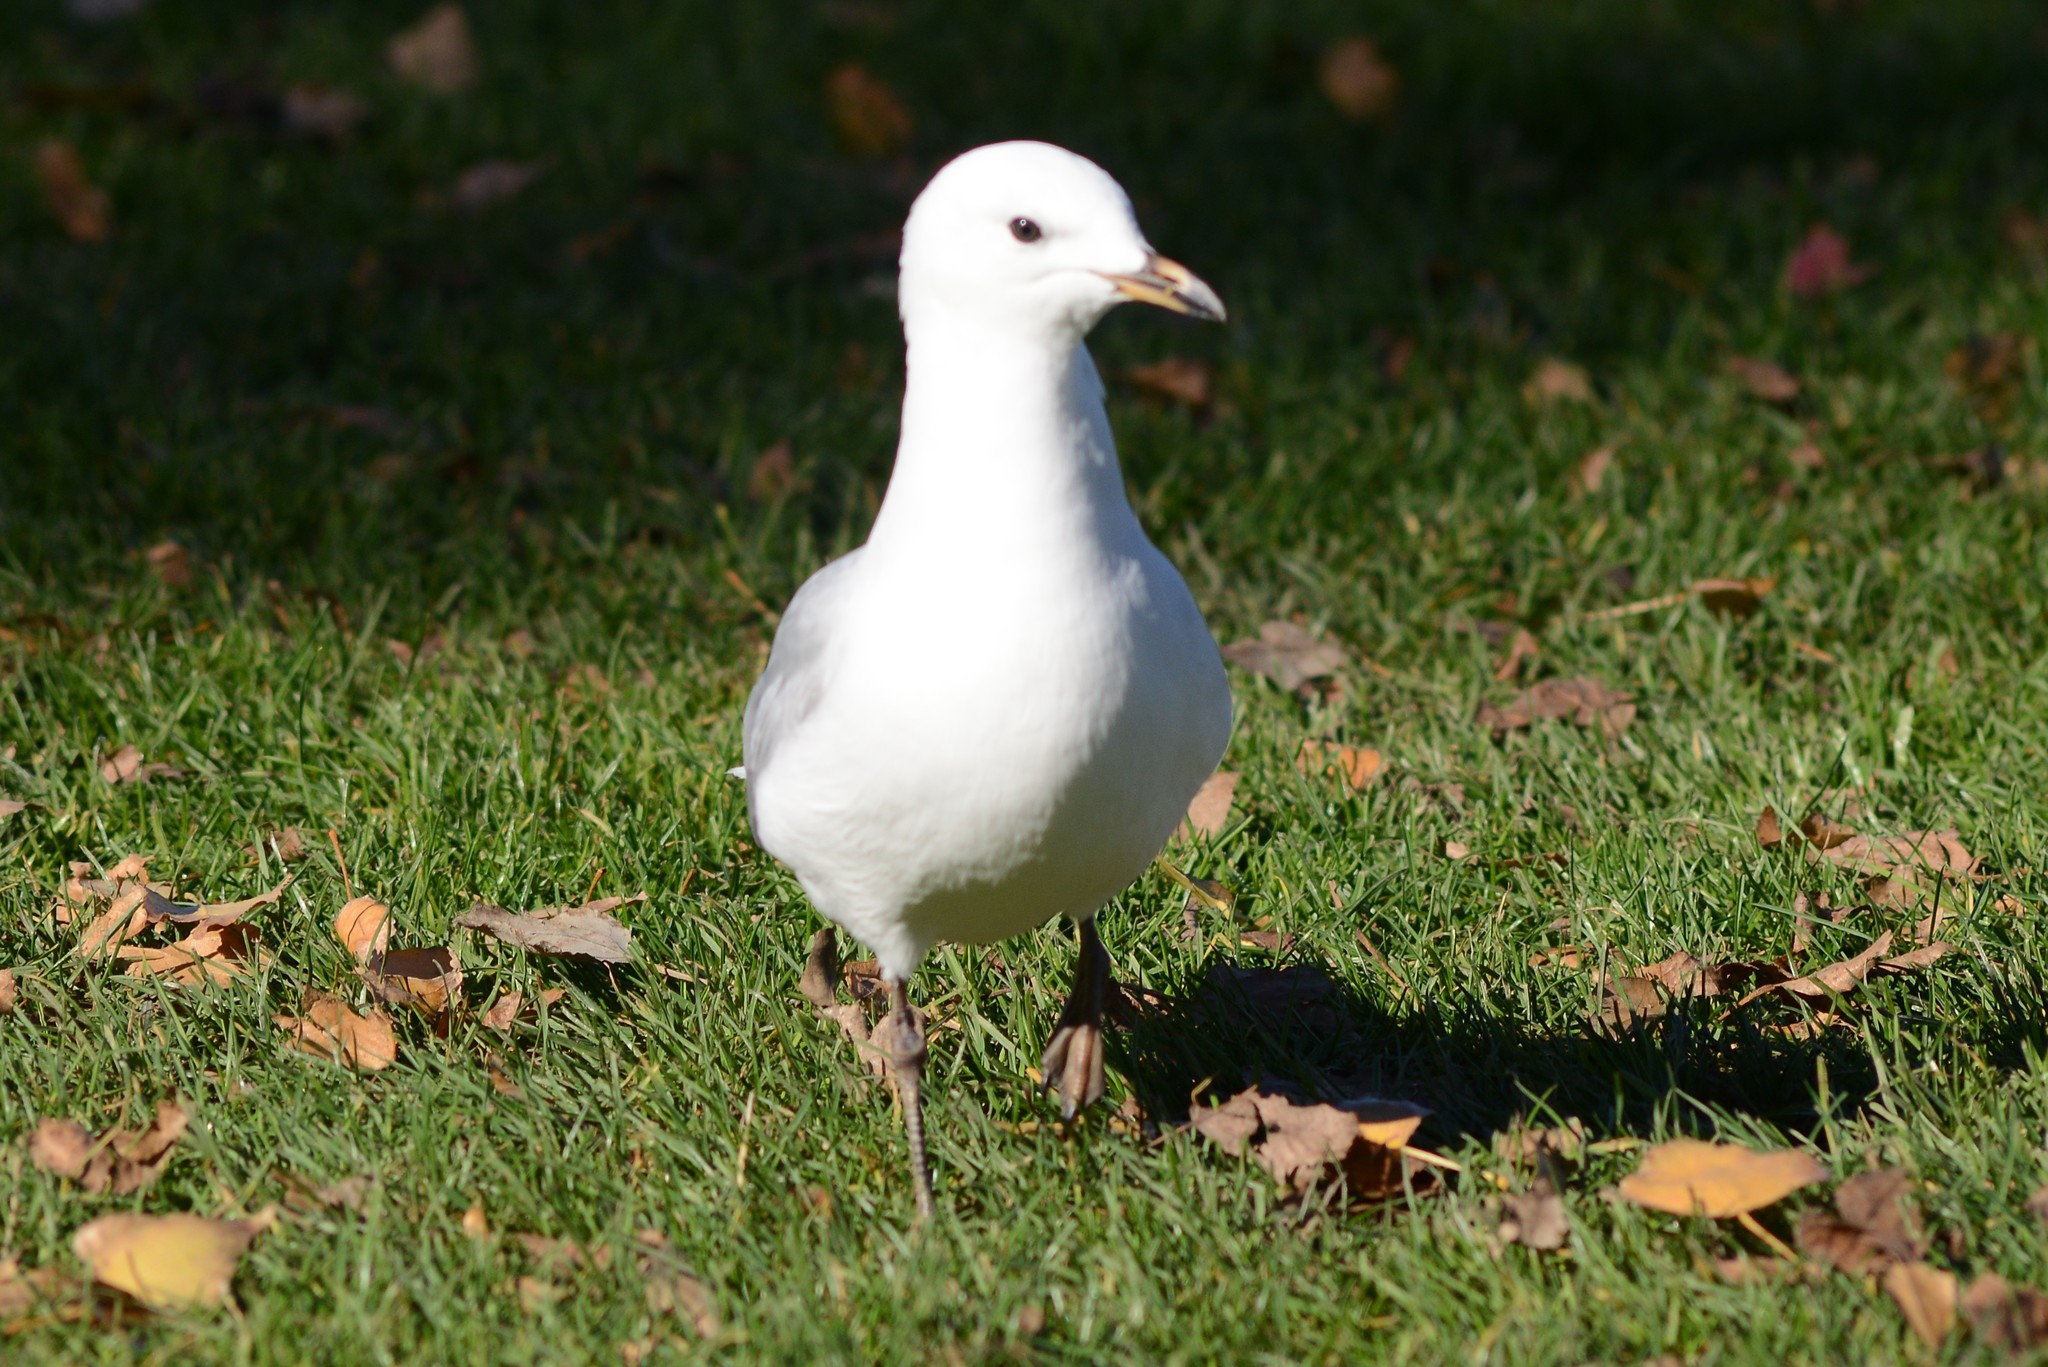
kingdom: Animalia
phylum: Chordata
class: Aves
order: Charadriiformes
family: Laridae
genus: Chroicocephalus
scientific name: Chroicocephalus novaehollandiae
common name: Silver gull
